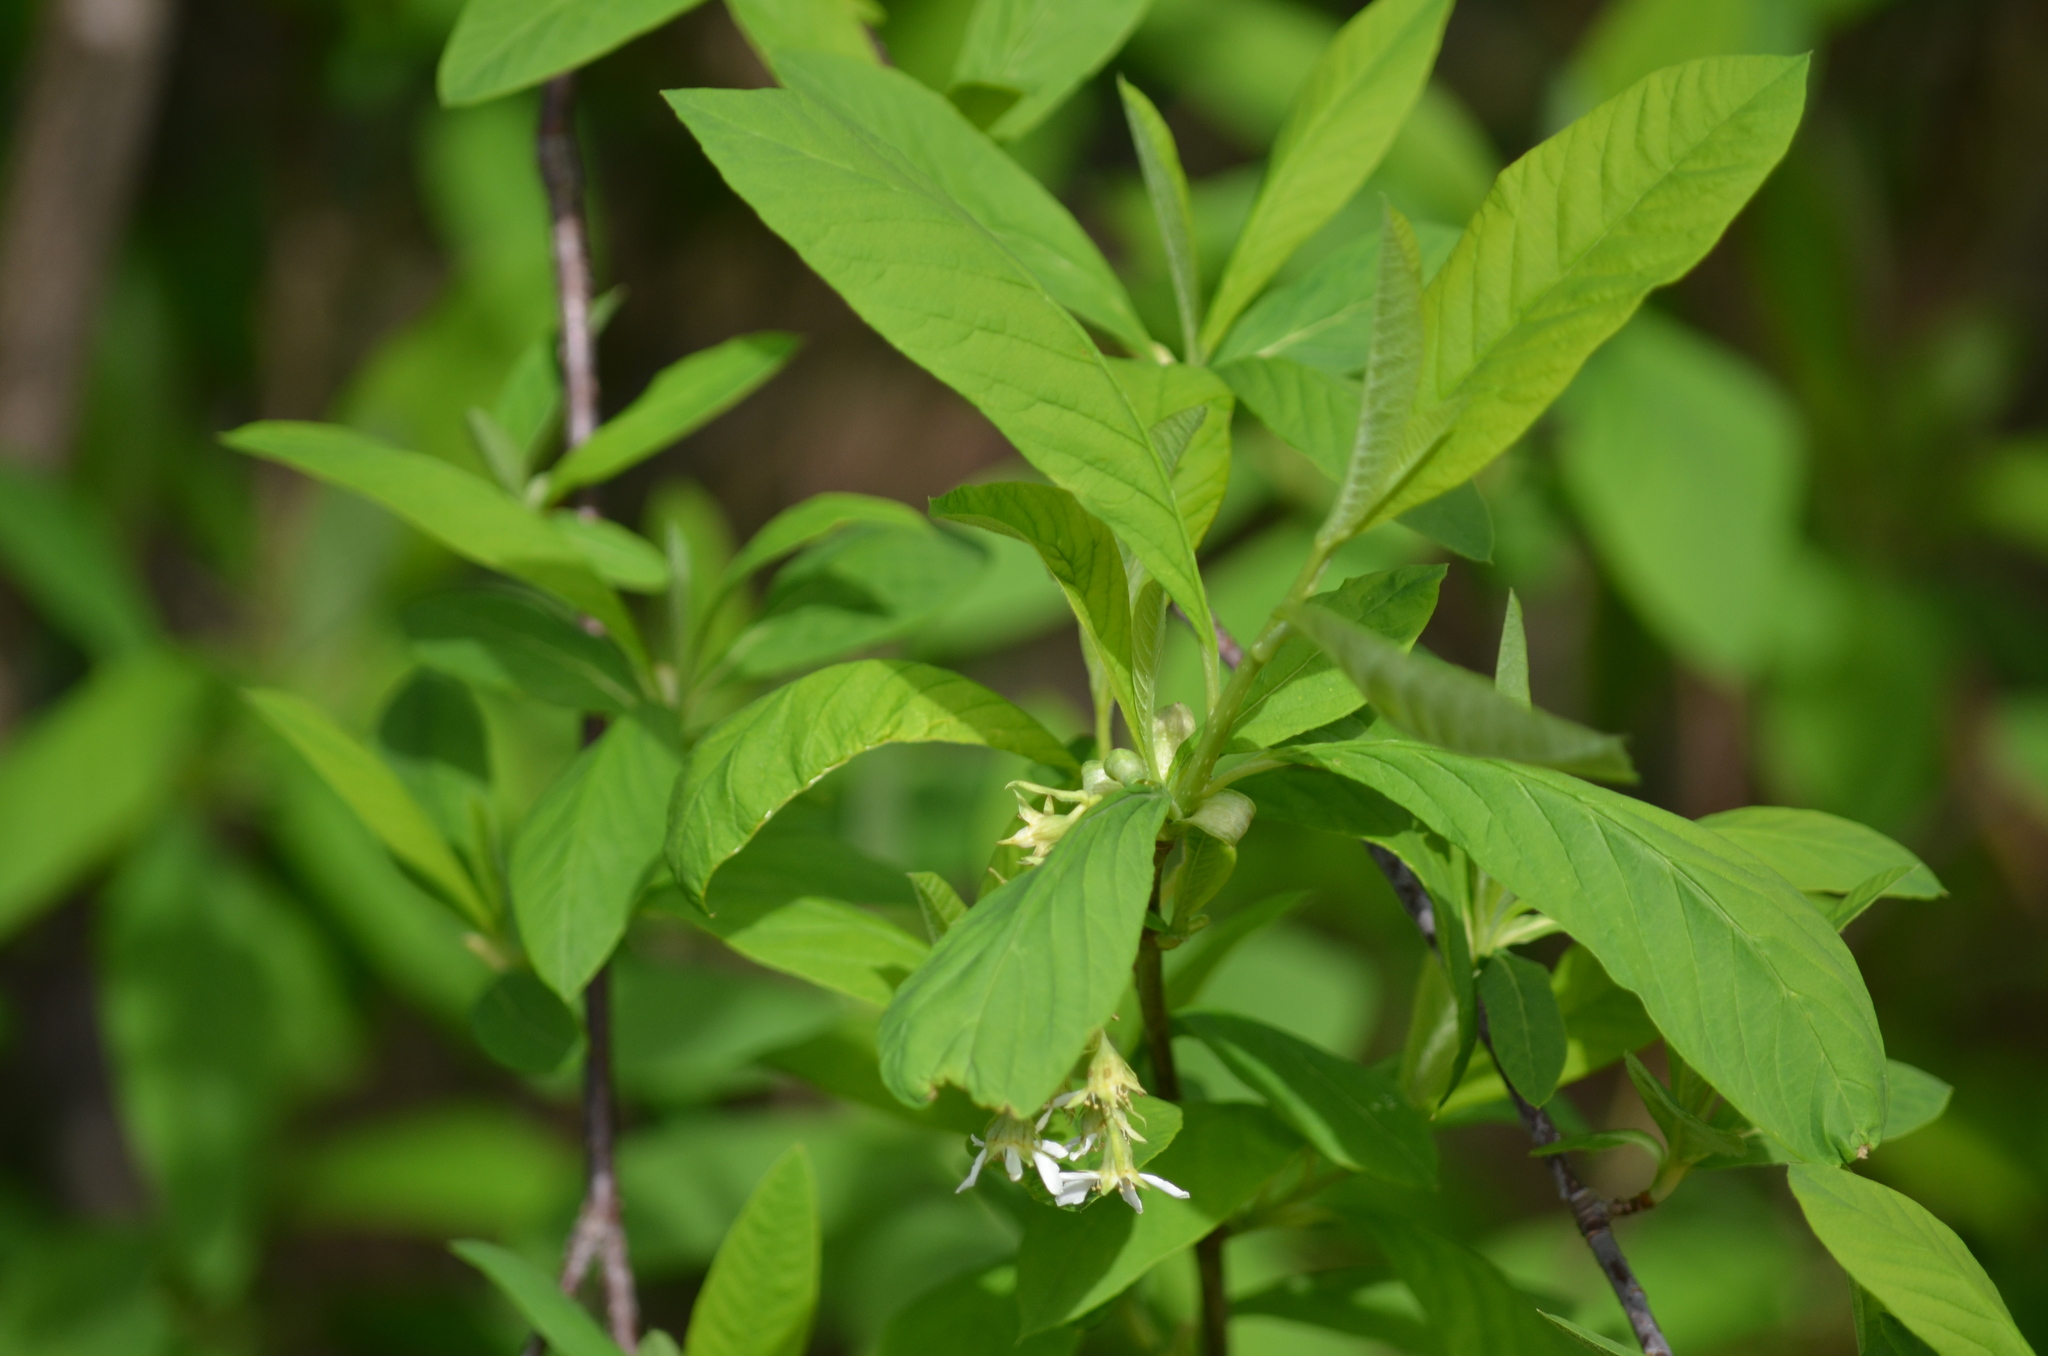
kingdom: Plantae
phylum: Tracheophyta
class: Magnoliopsida
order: Rosales
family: Rosaceae
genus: Oemleria
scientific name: Oemleria cerasiformis
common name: Osoberry
